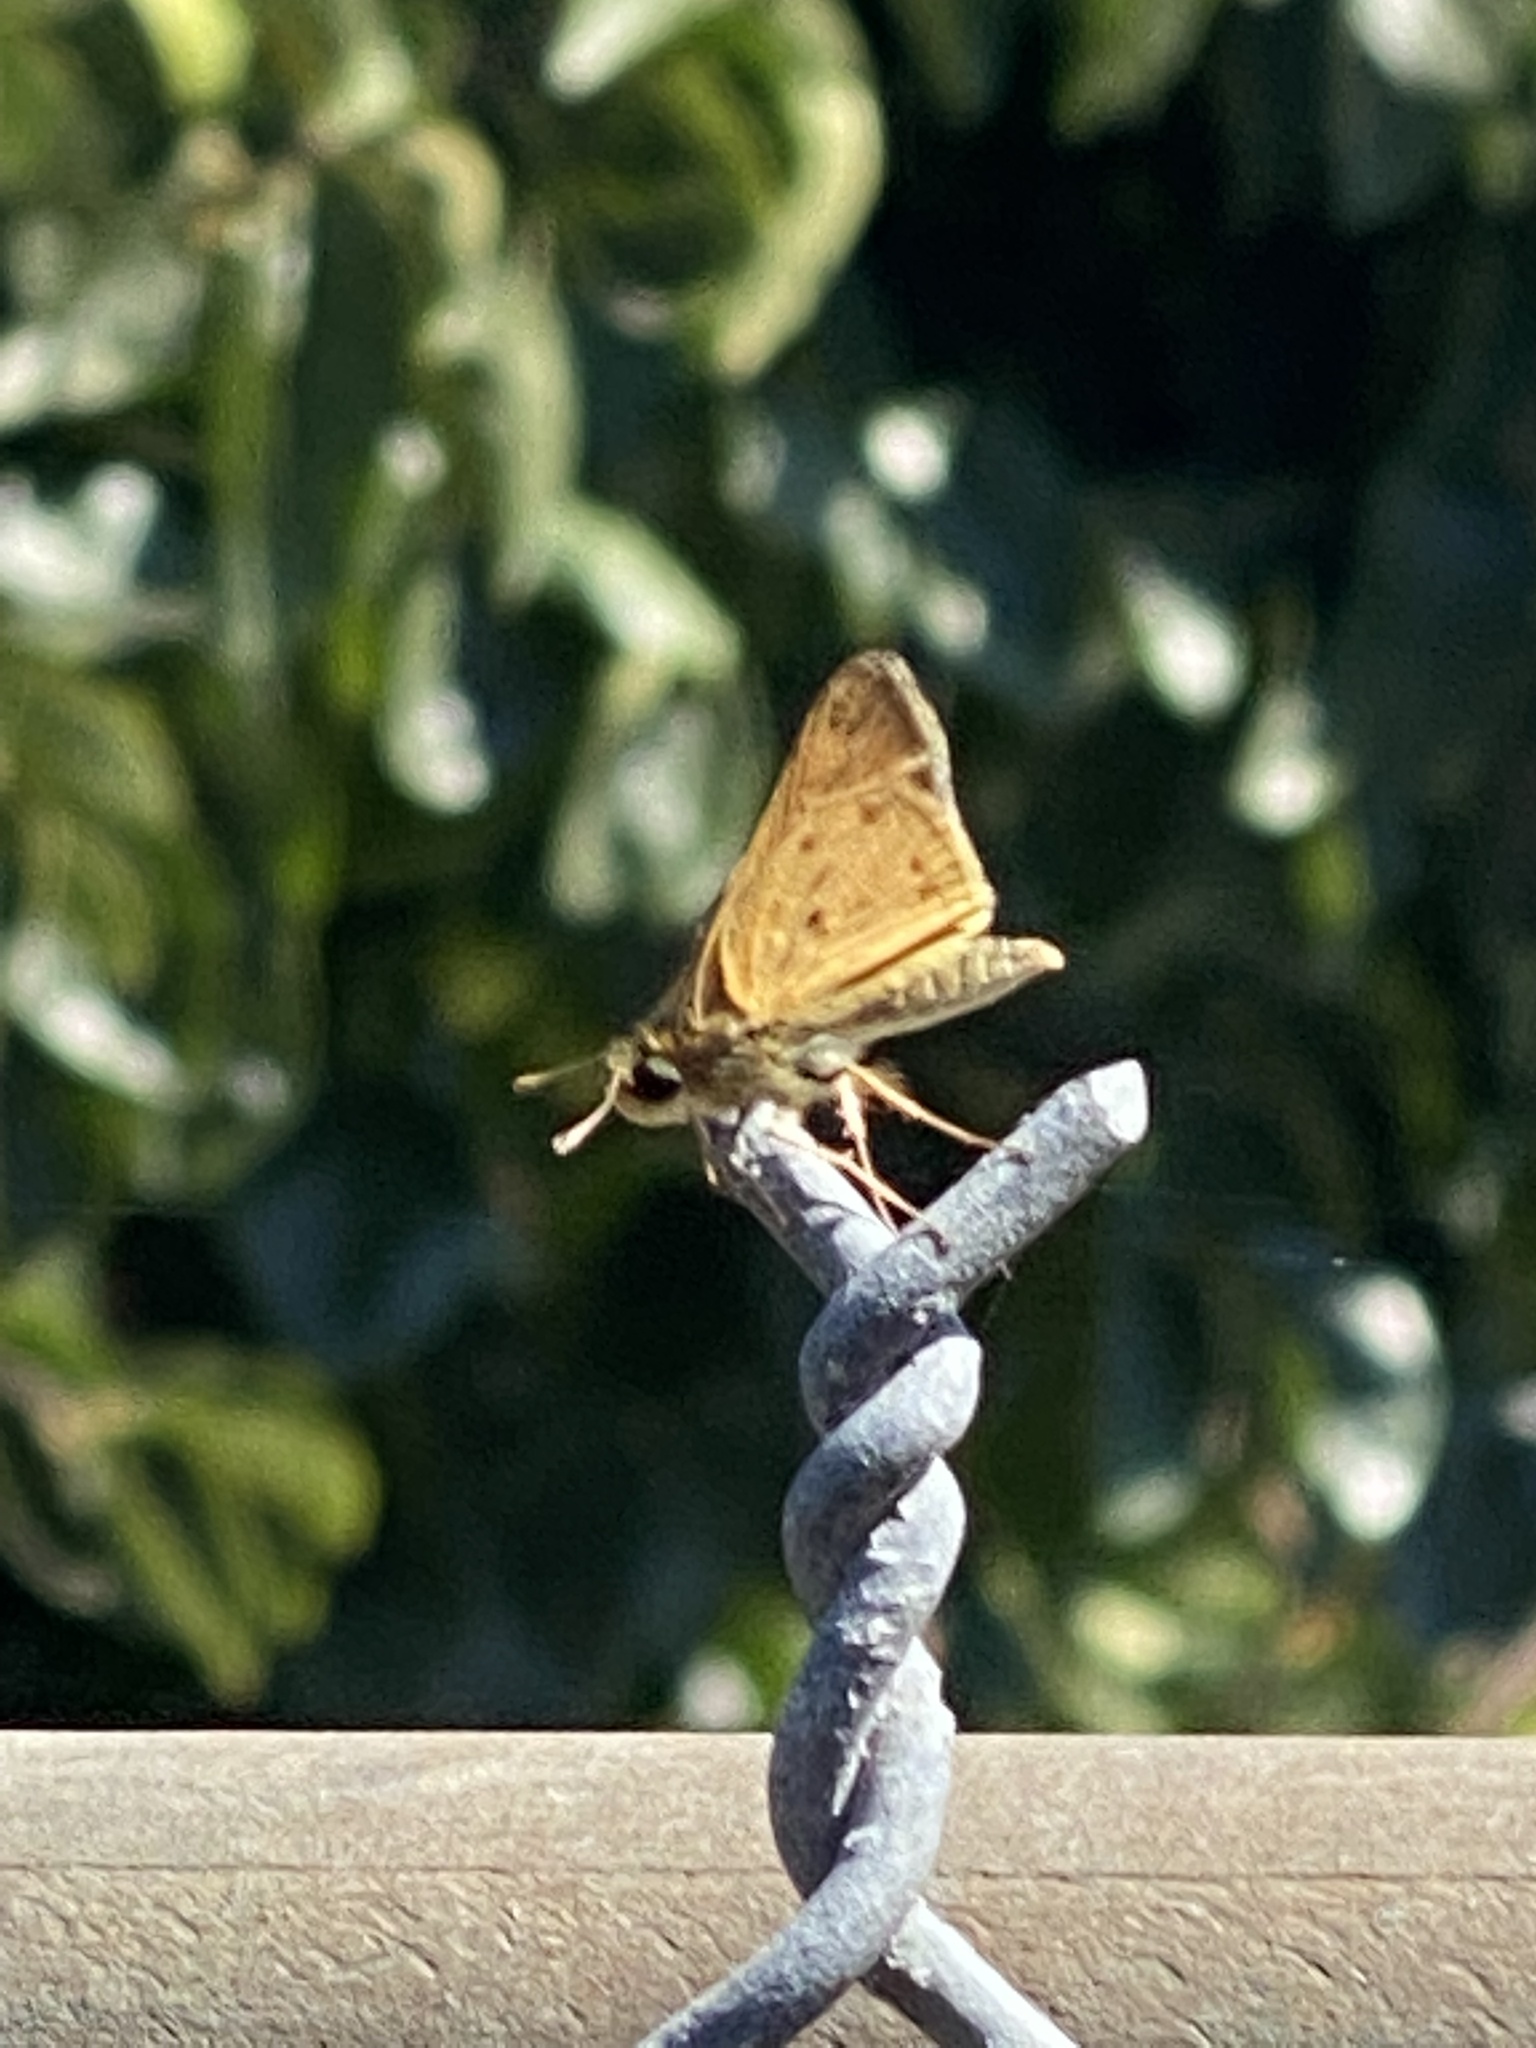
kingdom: Animalia
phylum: Arthropoda
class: Insecta
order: Lepidoptera
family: Hesperiidae
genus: Hylephila
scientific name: Hylephila phyleus
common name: Fiery skipper
